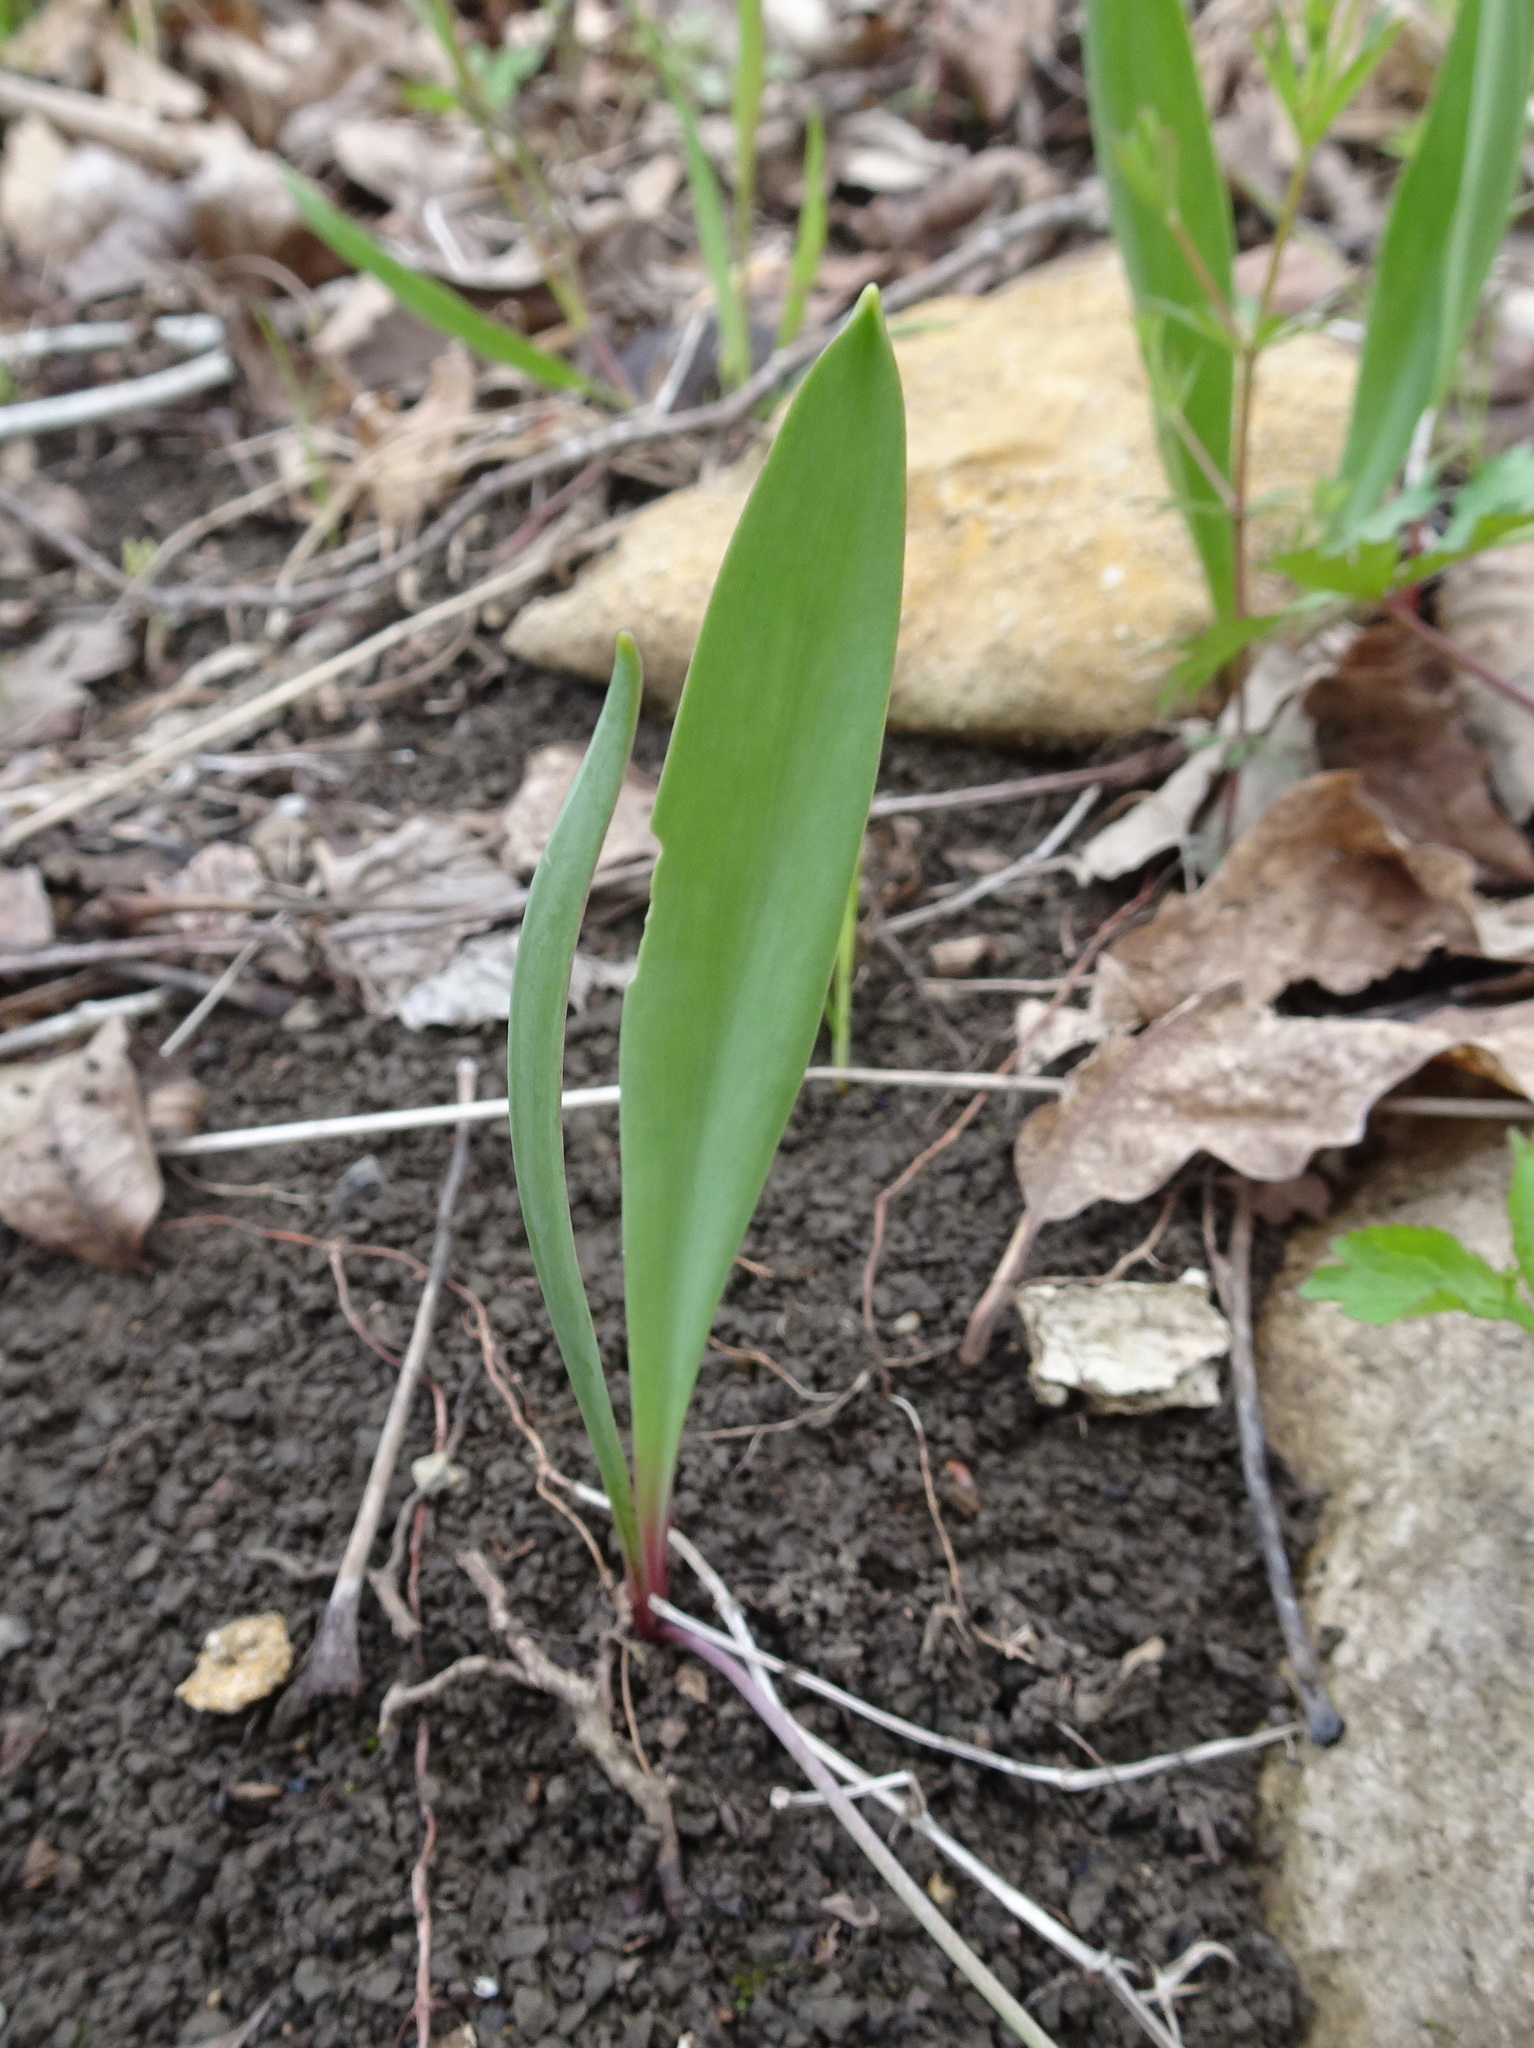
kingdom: Plantae
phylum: Tracheophyta
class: Liliopsida
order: Liliales
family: Liliaceae
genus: Erythronium
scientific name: Erythronium mesochoreum
